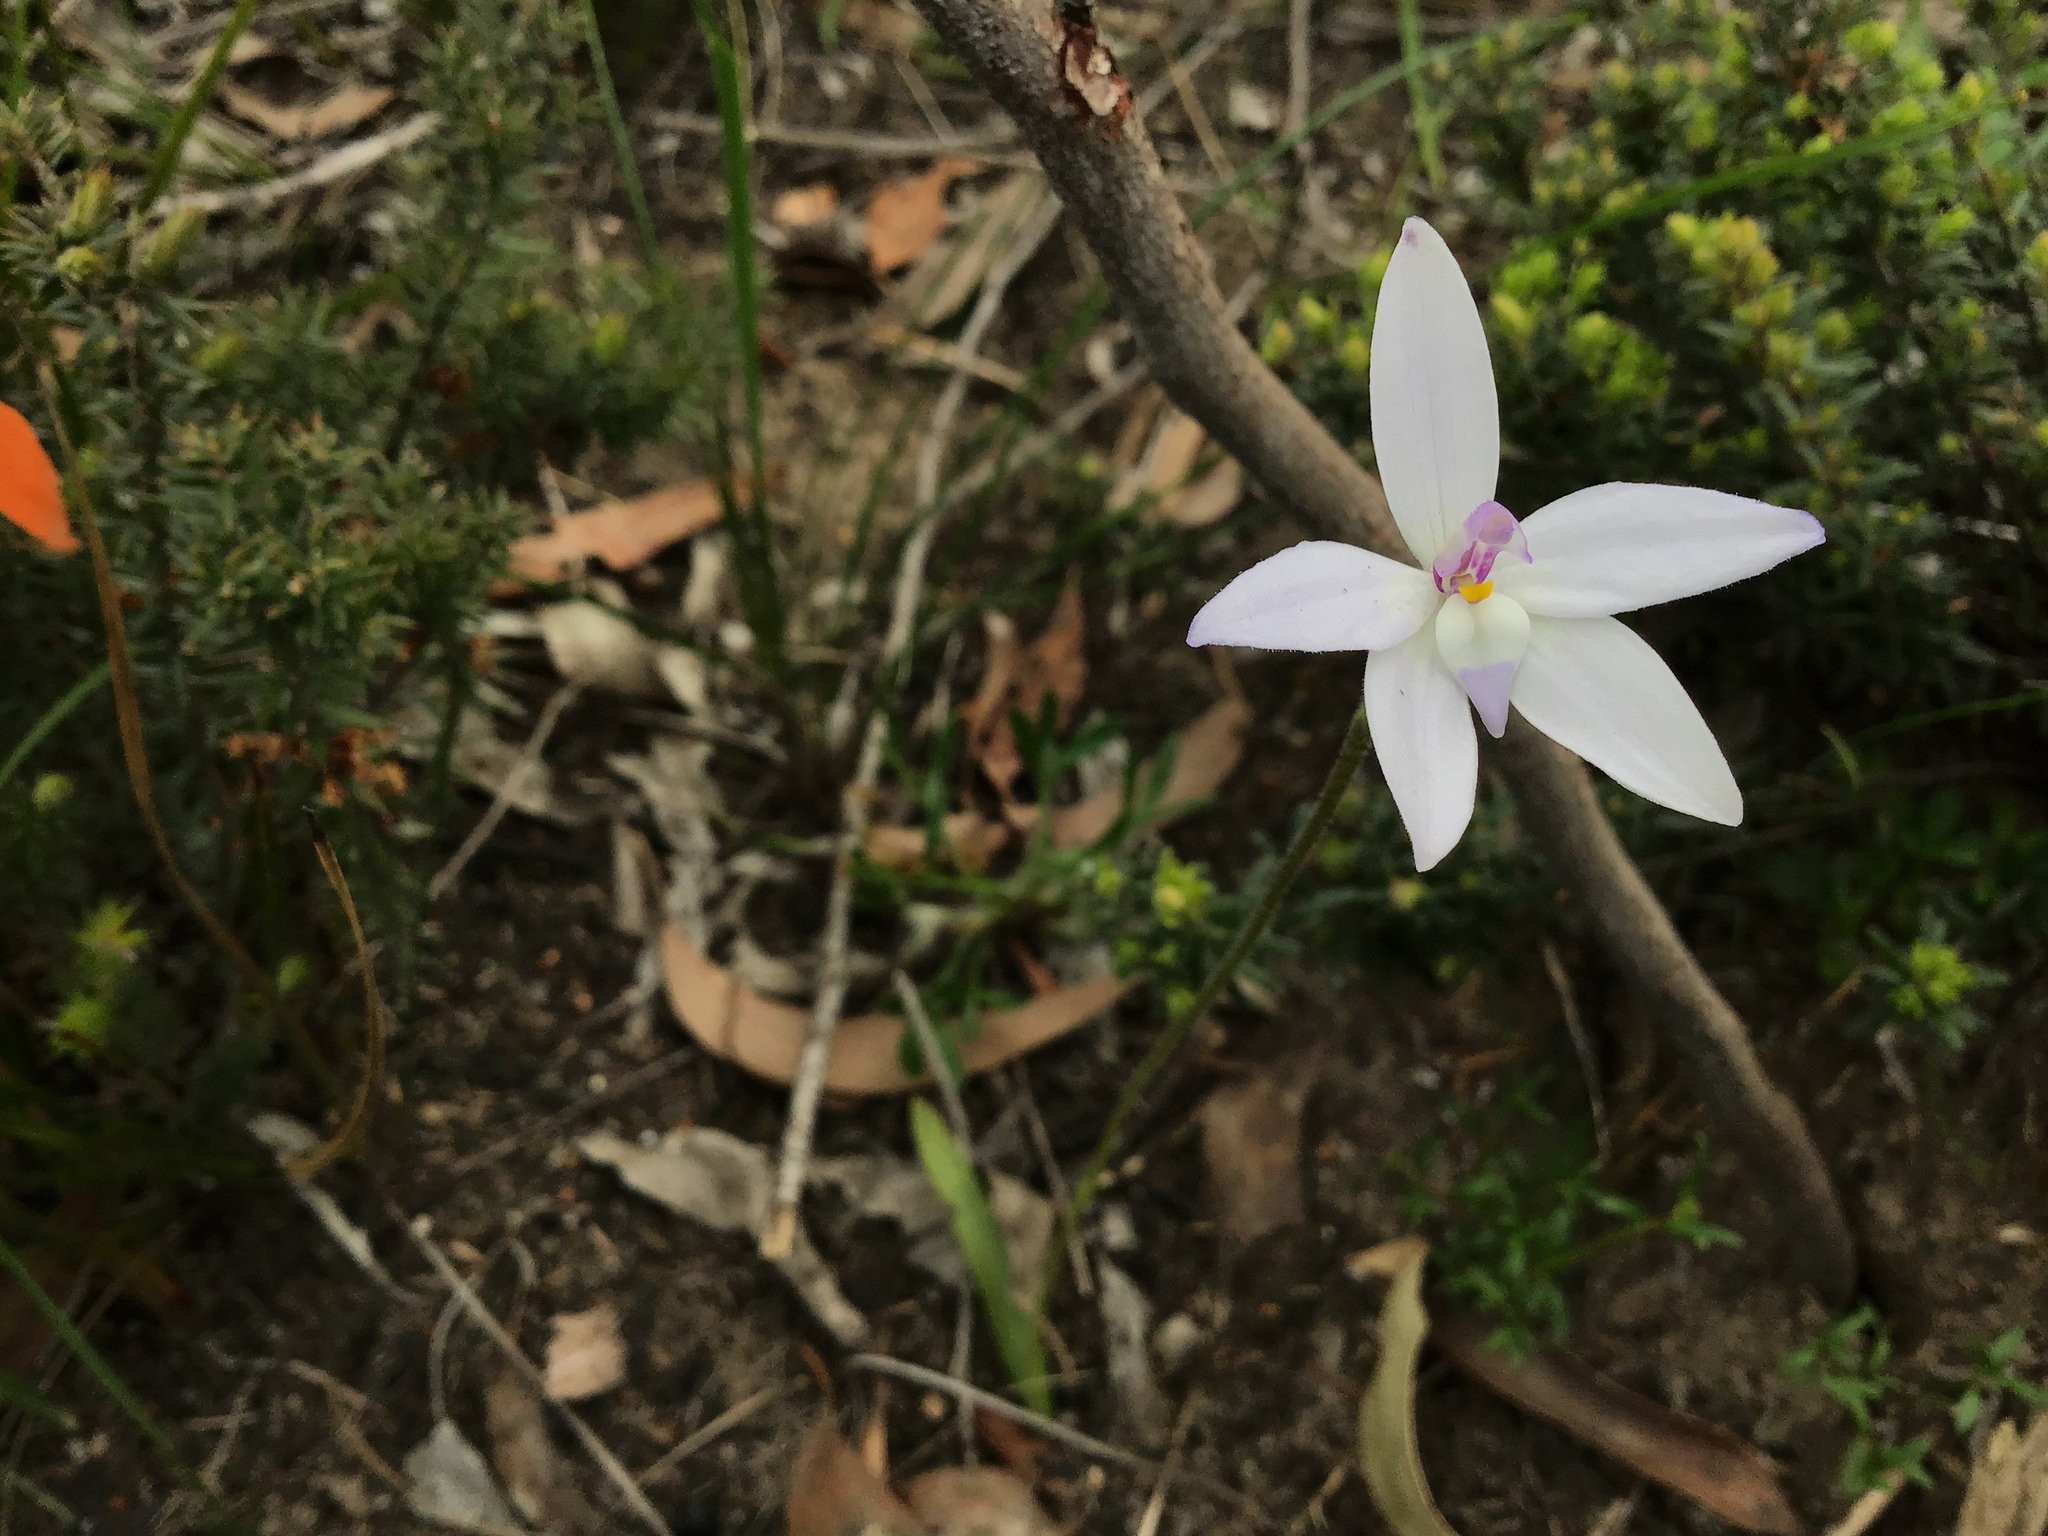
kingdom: Plantae
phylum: Tracheophyta
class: Liliopsida
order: Asparagales
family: Orchidaceae
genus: Caladenia
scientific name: Caladenia major
